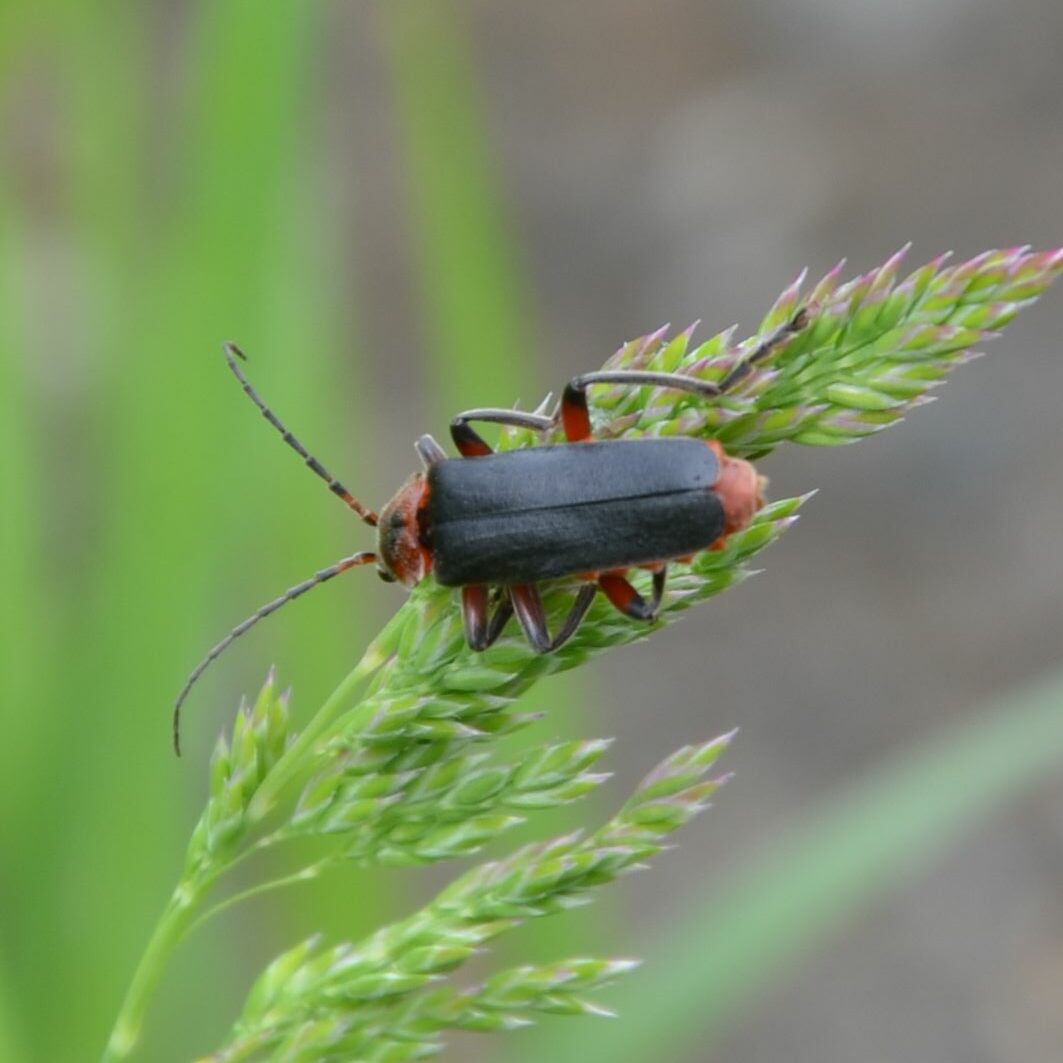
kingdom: Animalia
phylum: Arthropoda
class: Insecta
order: Coleoptera
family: Cantharidae
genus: Cantharis
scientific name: Cantharis rustica
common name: Soldier beetle
